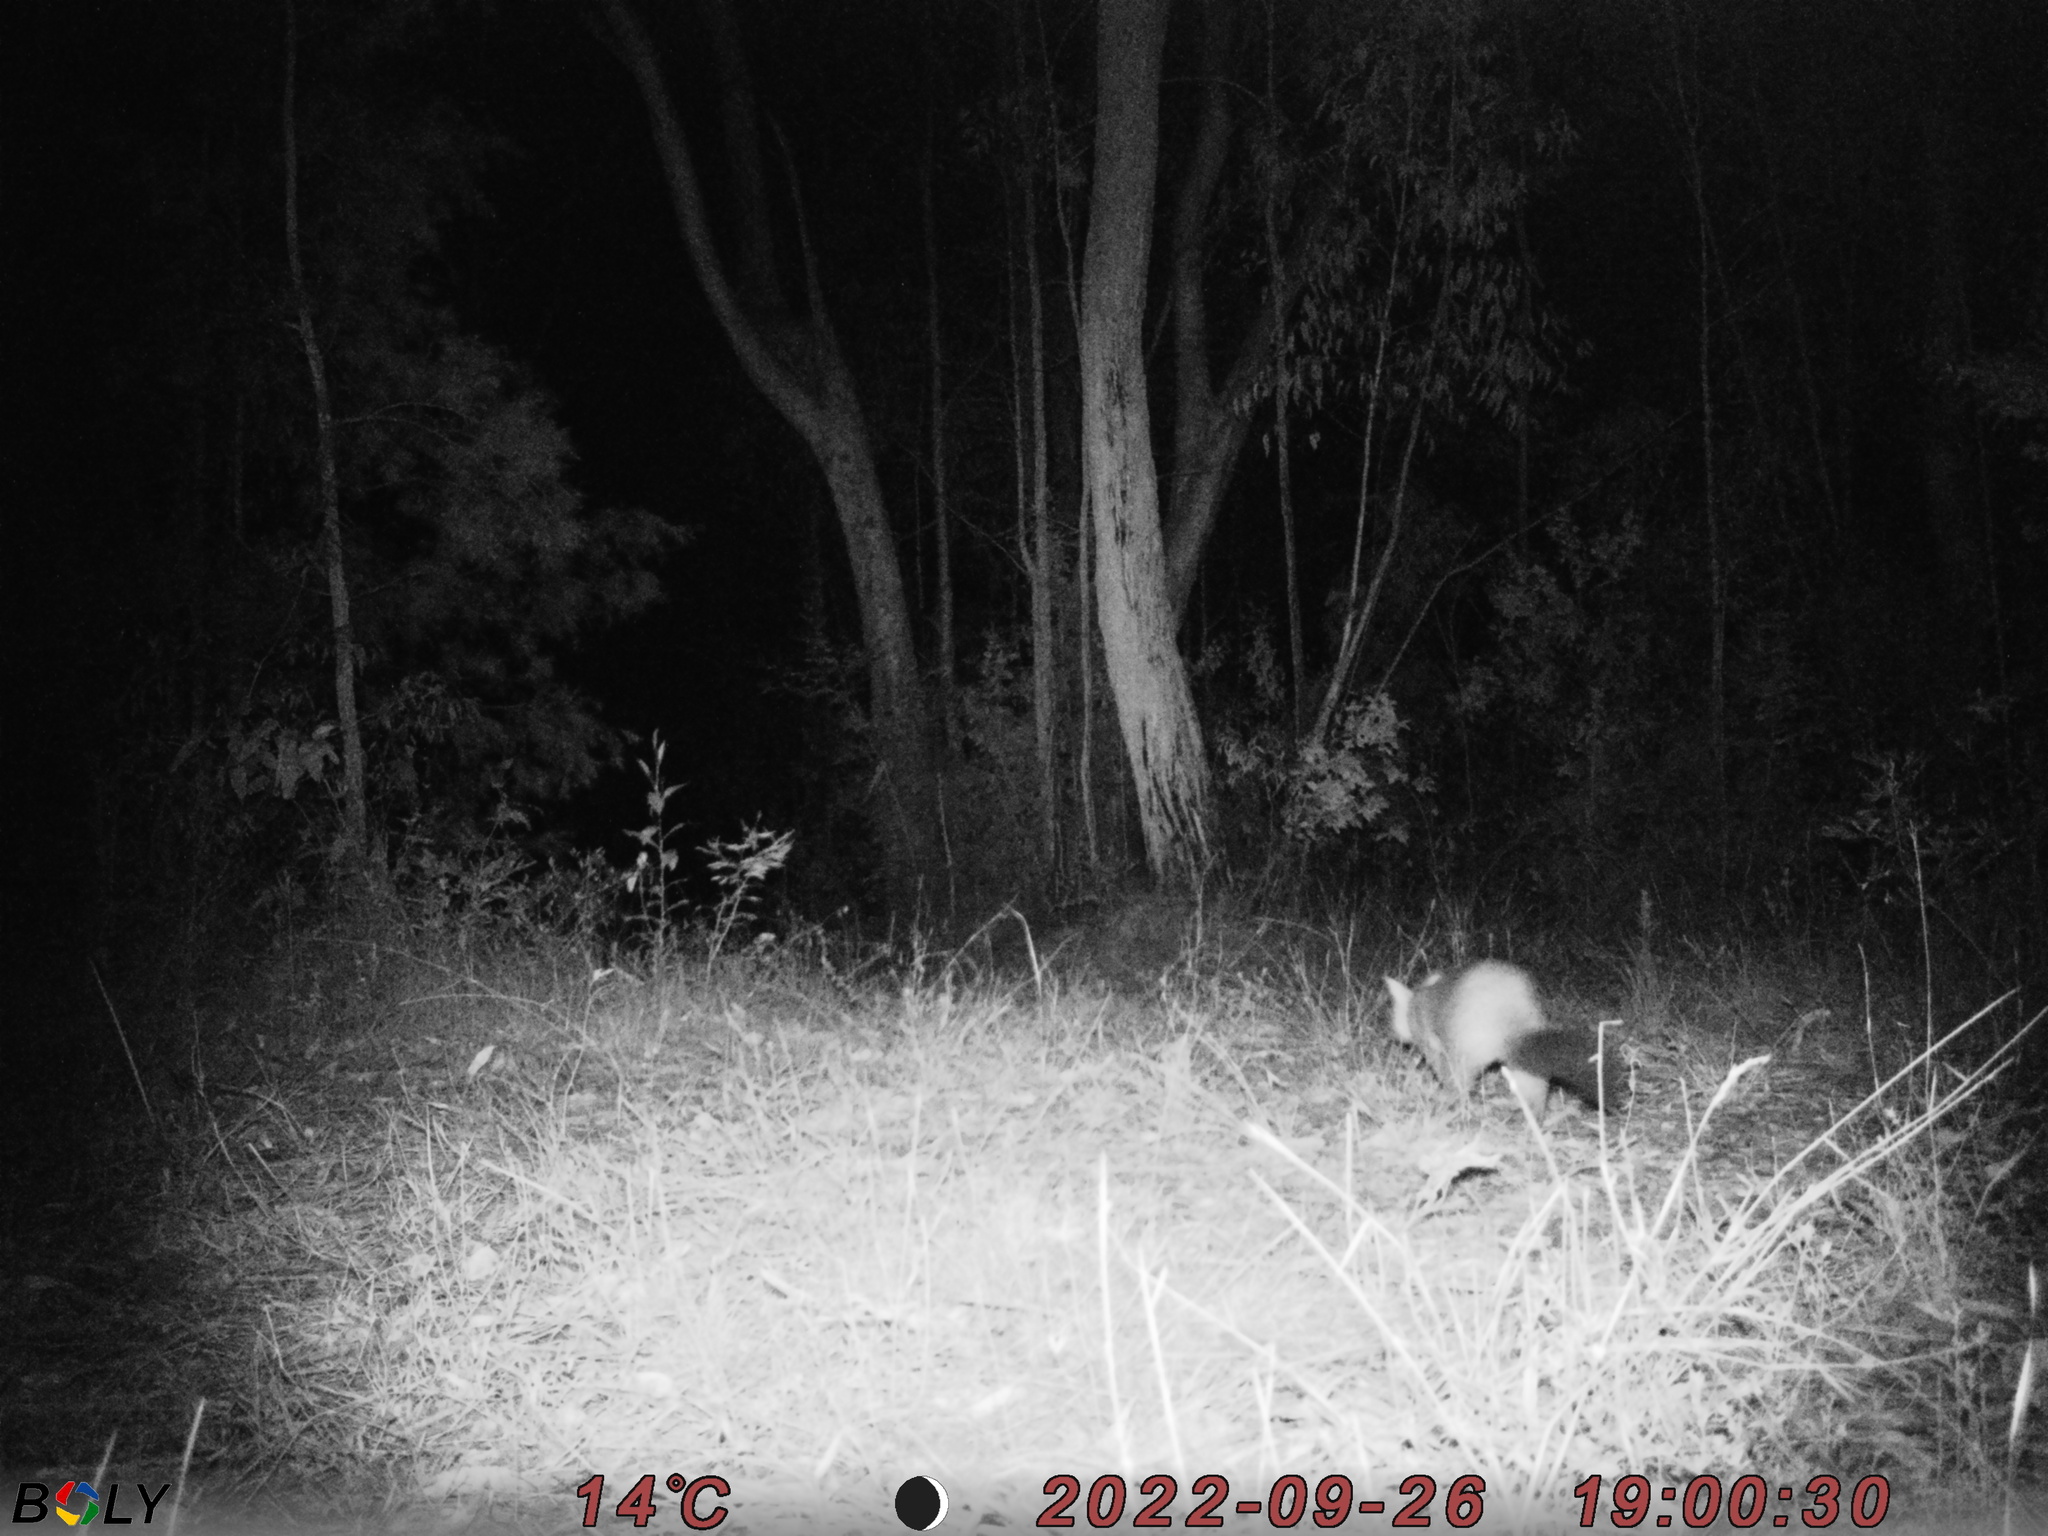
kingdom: Animalia
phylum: Chordata
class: Mammalia
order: Diprotodontia
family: Phalangeridae
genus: Trichosurus
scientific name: Trichosurus vulpecula
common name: Common brushtail
